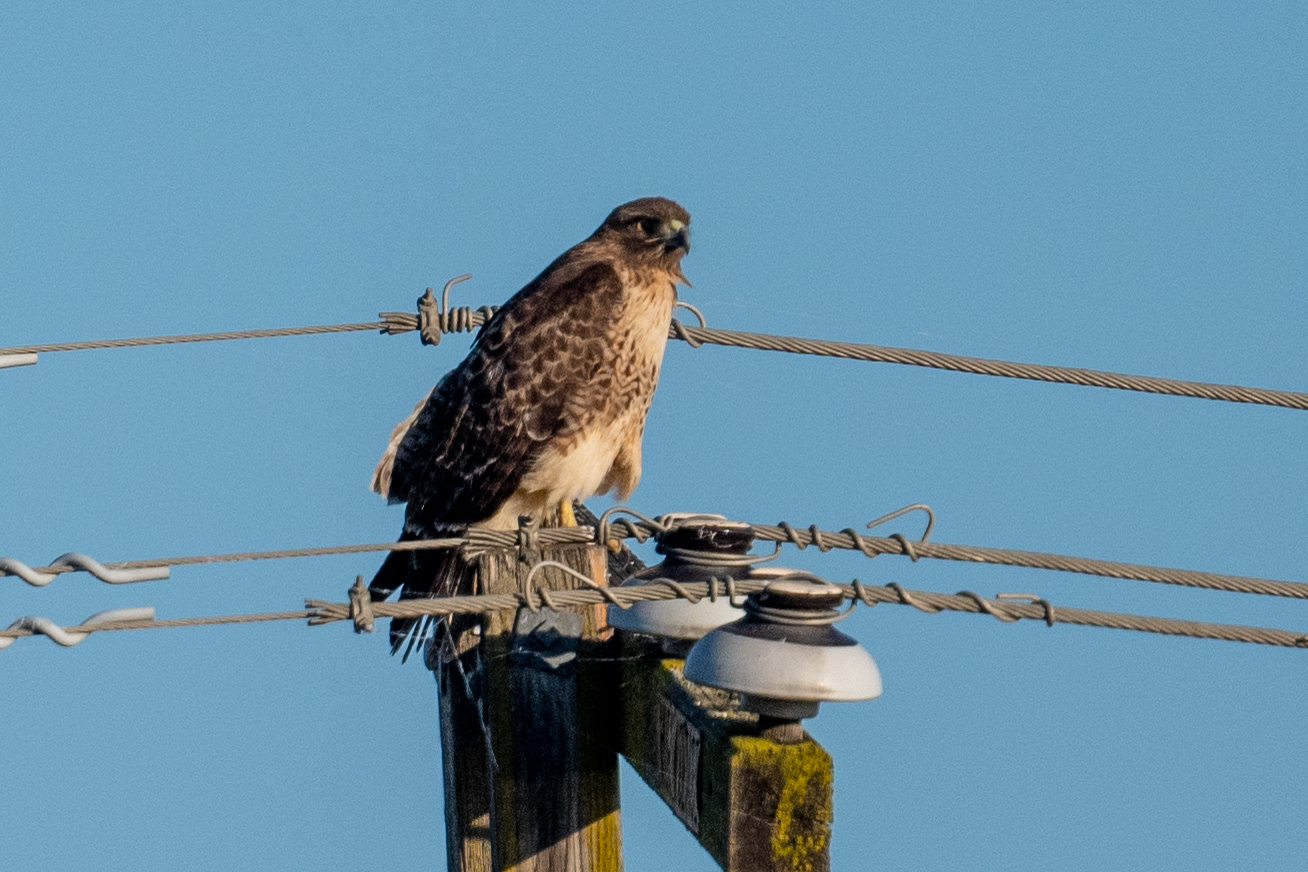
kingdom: Animalia
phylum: Chordata
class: Aves
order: Accipitriformes
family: Accipitridae
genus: Buteo
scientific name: Buteo jamaicensis
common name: Red-tailed hawk
